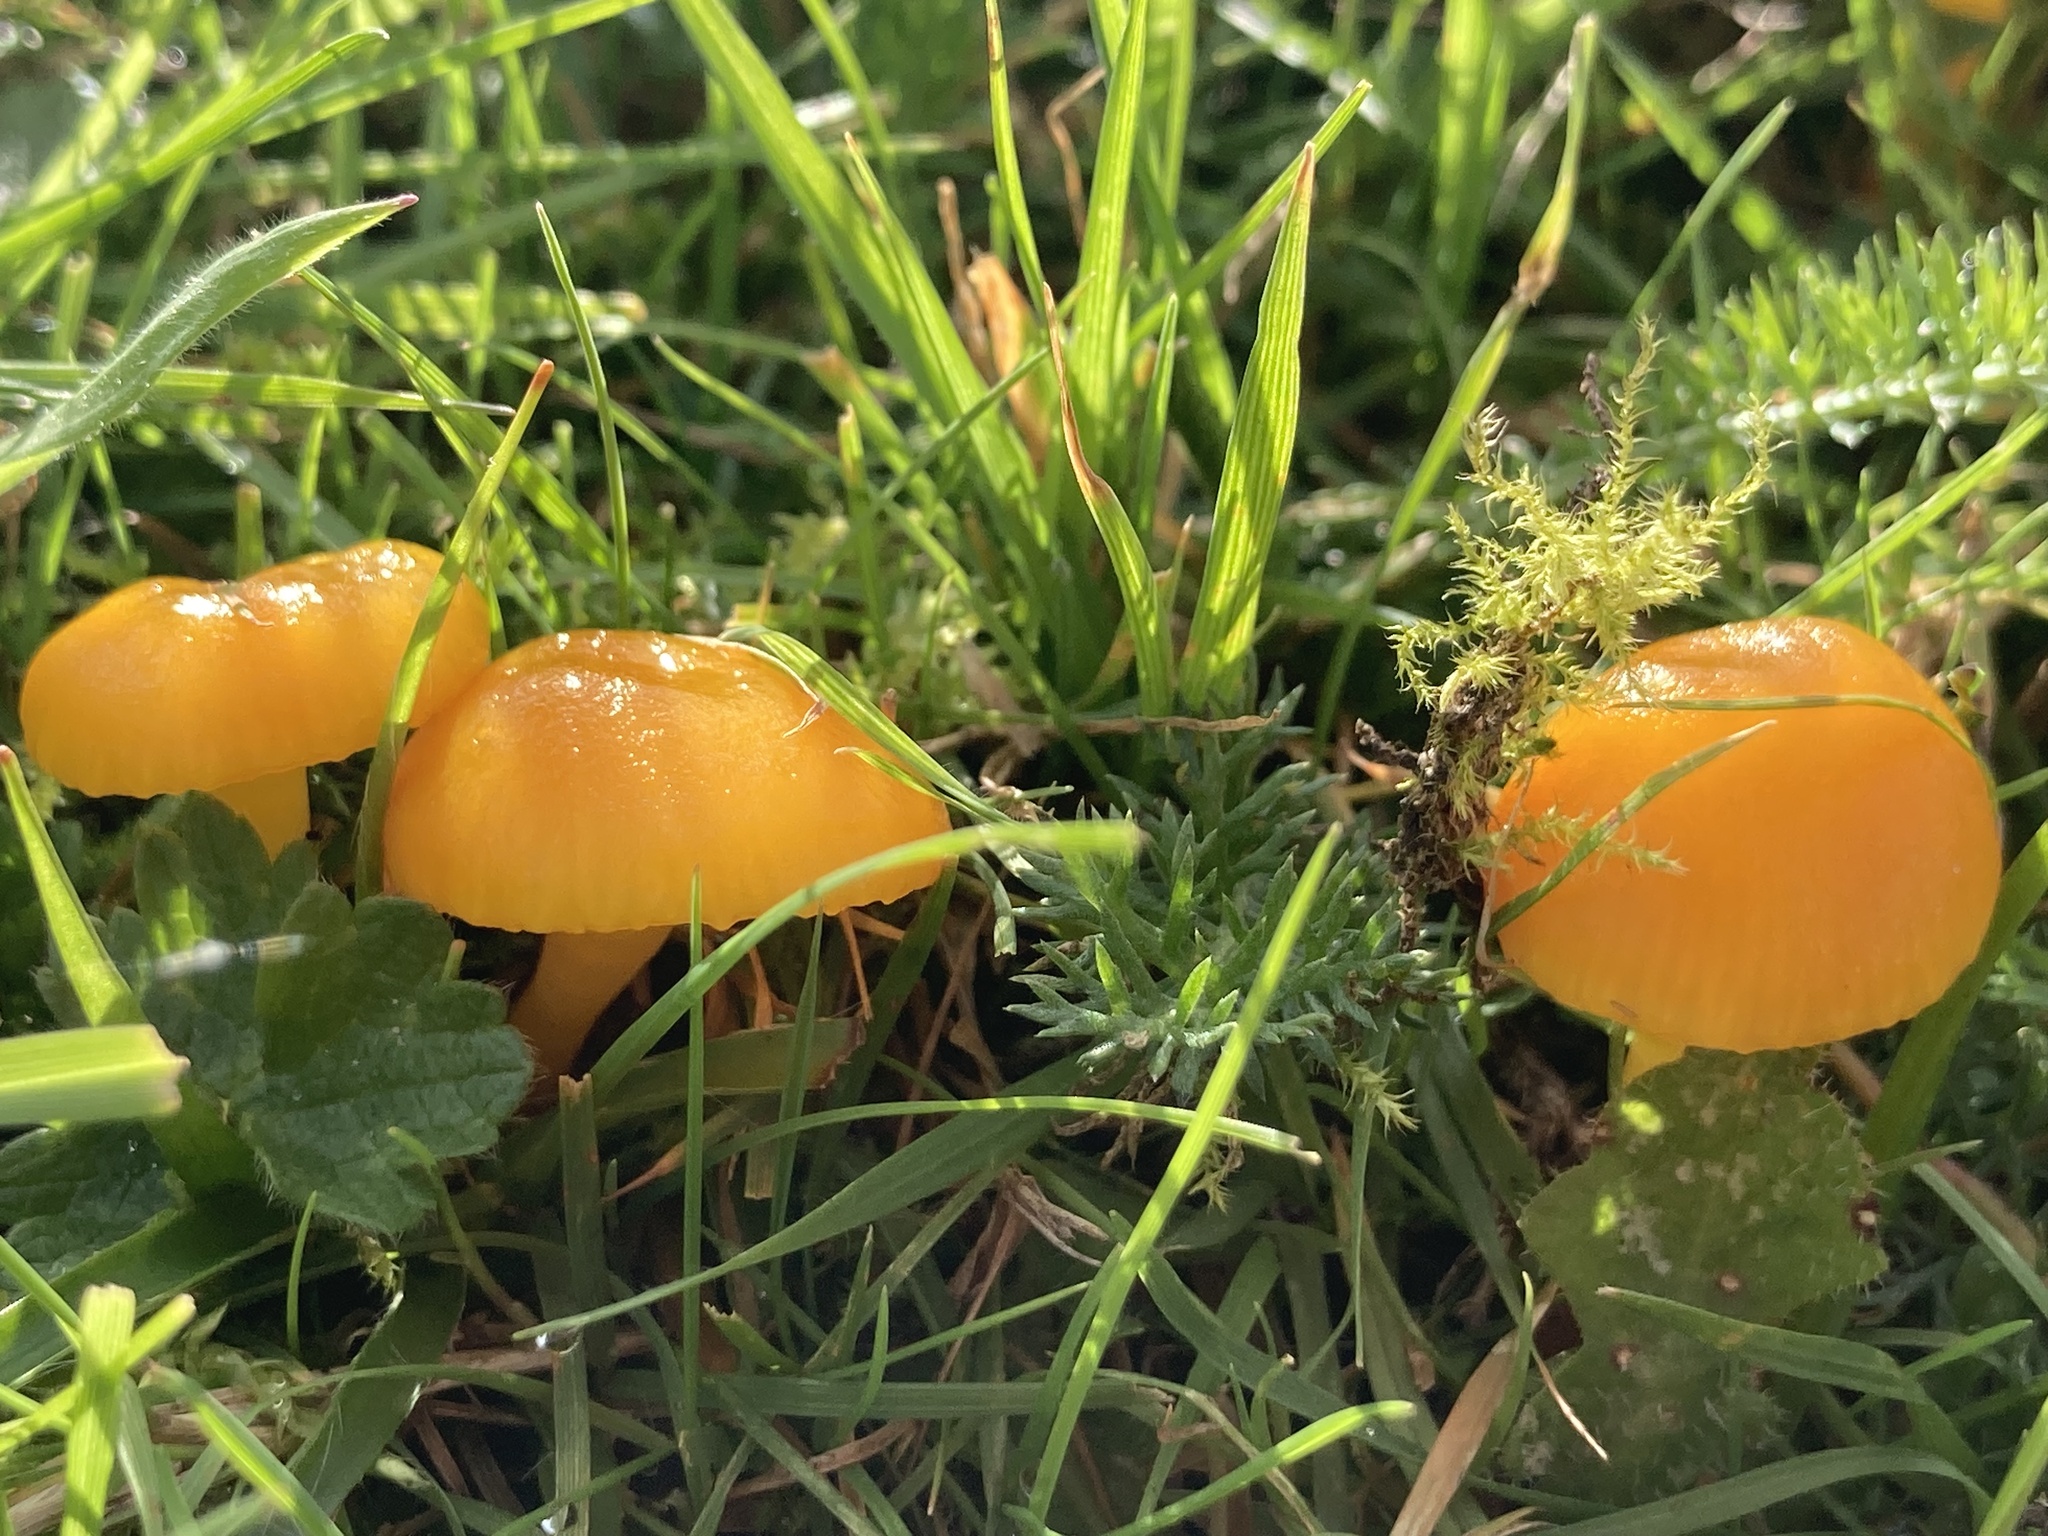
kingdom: Fungi
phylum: Basidiomycota
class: Agaricomycetes
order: Agaricales
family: Hygrophoraceae
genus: Hygrocybe
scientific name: Hygrocybe ceracea
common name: Butter waxcap
